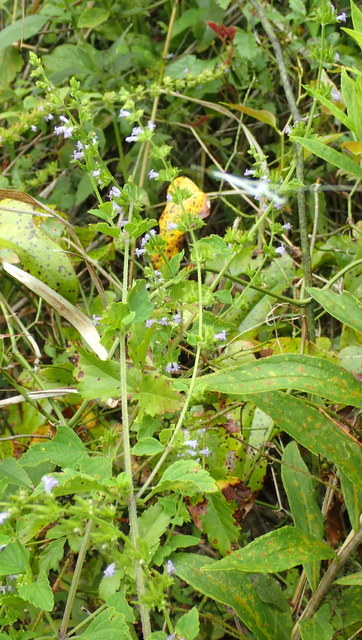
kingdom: Plantae
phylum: Tracheophyta
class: Magnoliopsida
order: Lamiales
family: Lamiaceae
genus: Cantinoa
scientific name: Cantinoa mutabilis
